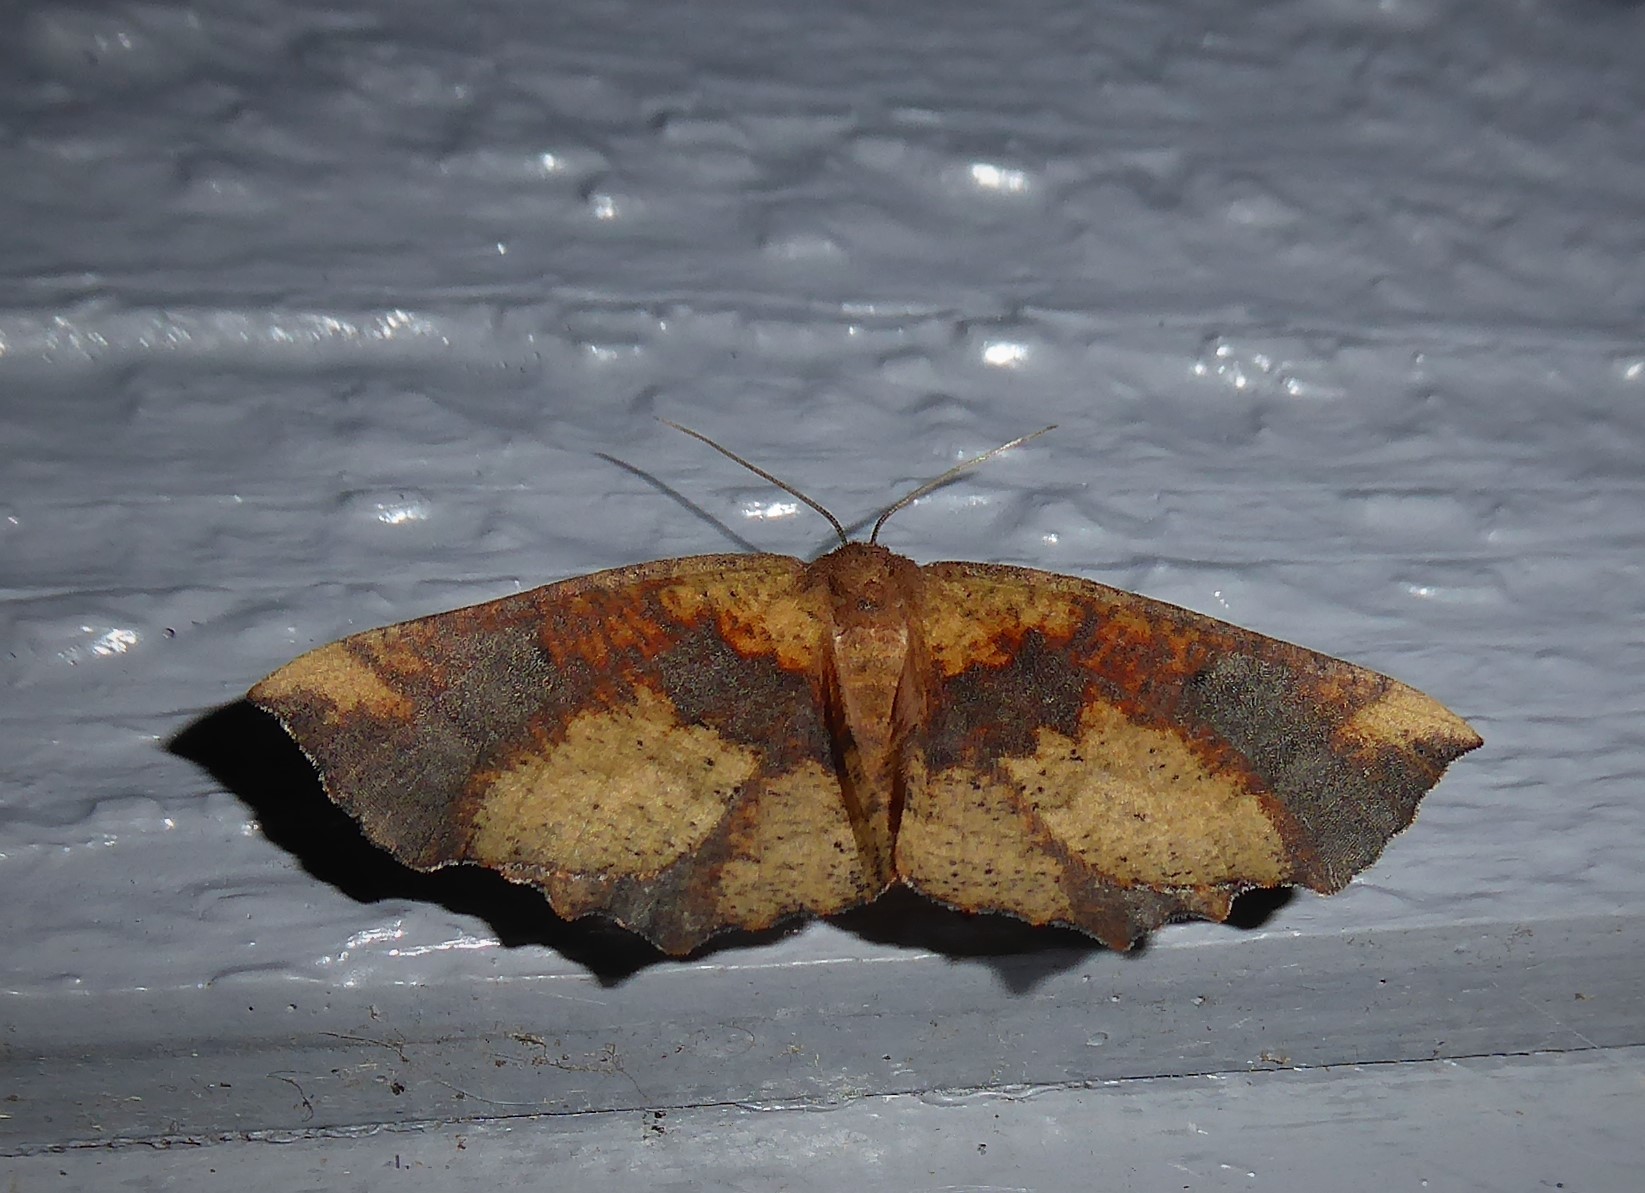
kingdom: Animalia
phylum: Arthropoda
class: Insecta
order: Lepidoptera
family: Geometridae
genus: Xyridacma
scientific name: Xyridacma ustaria
